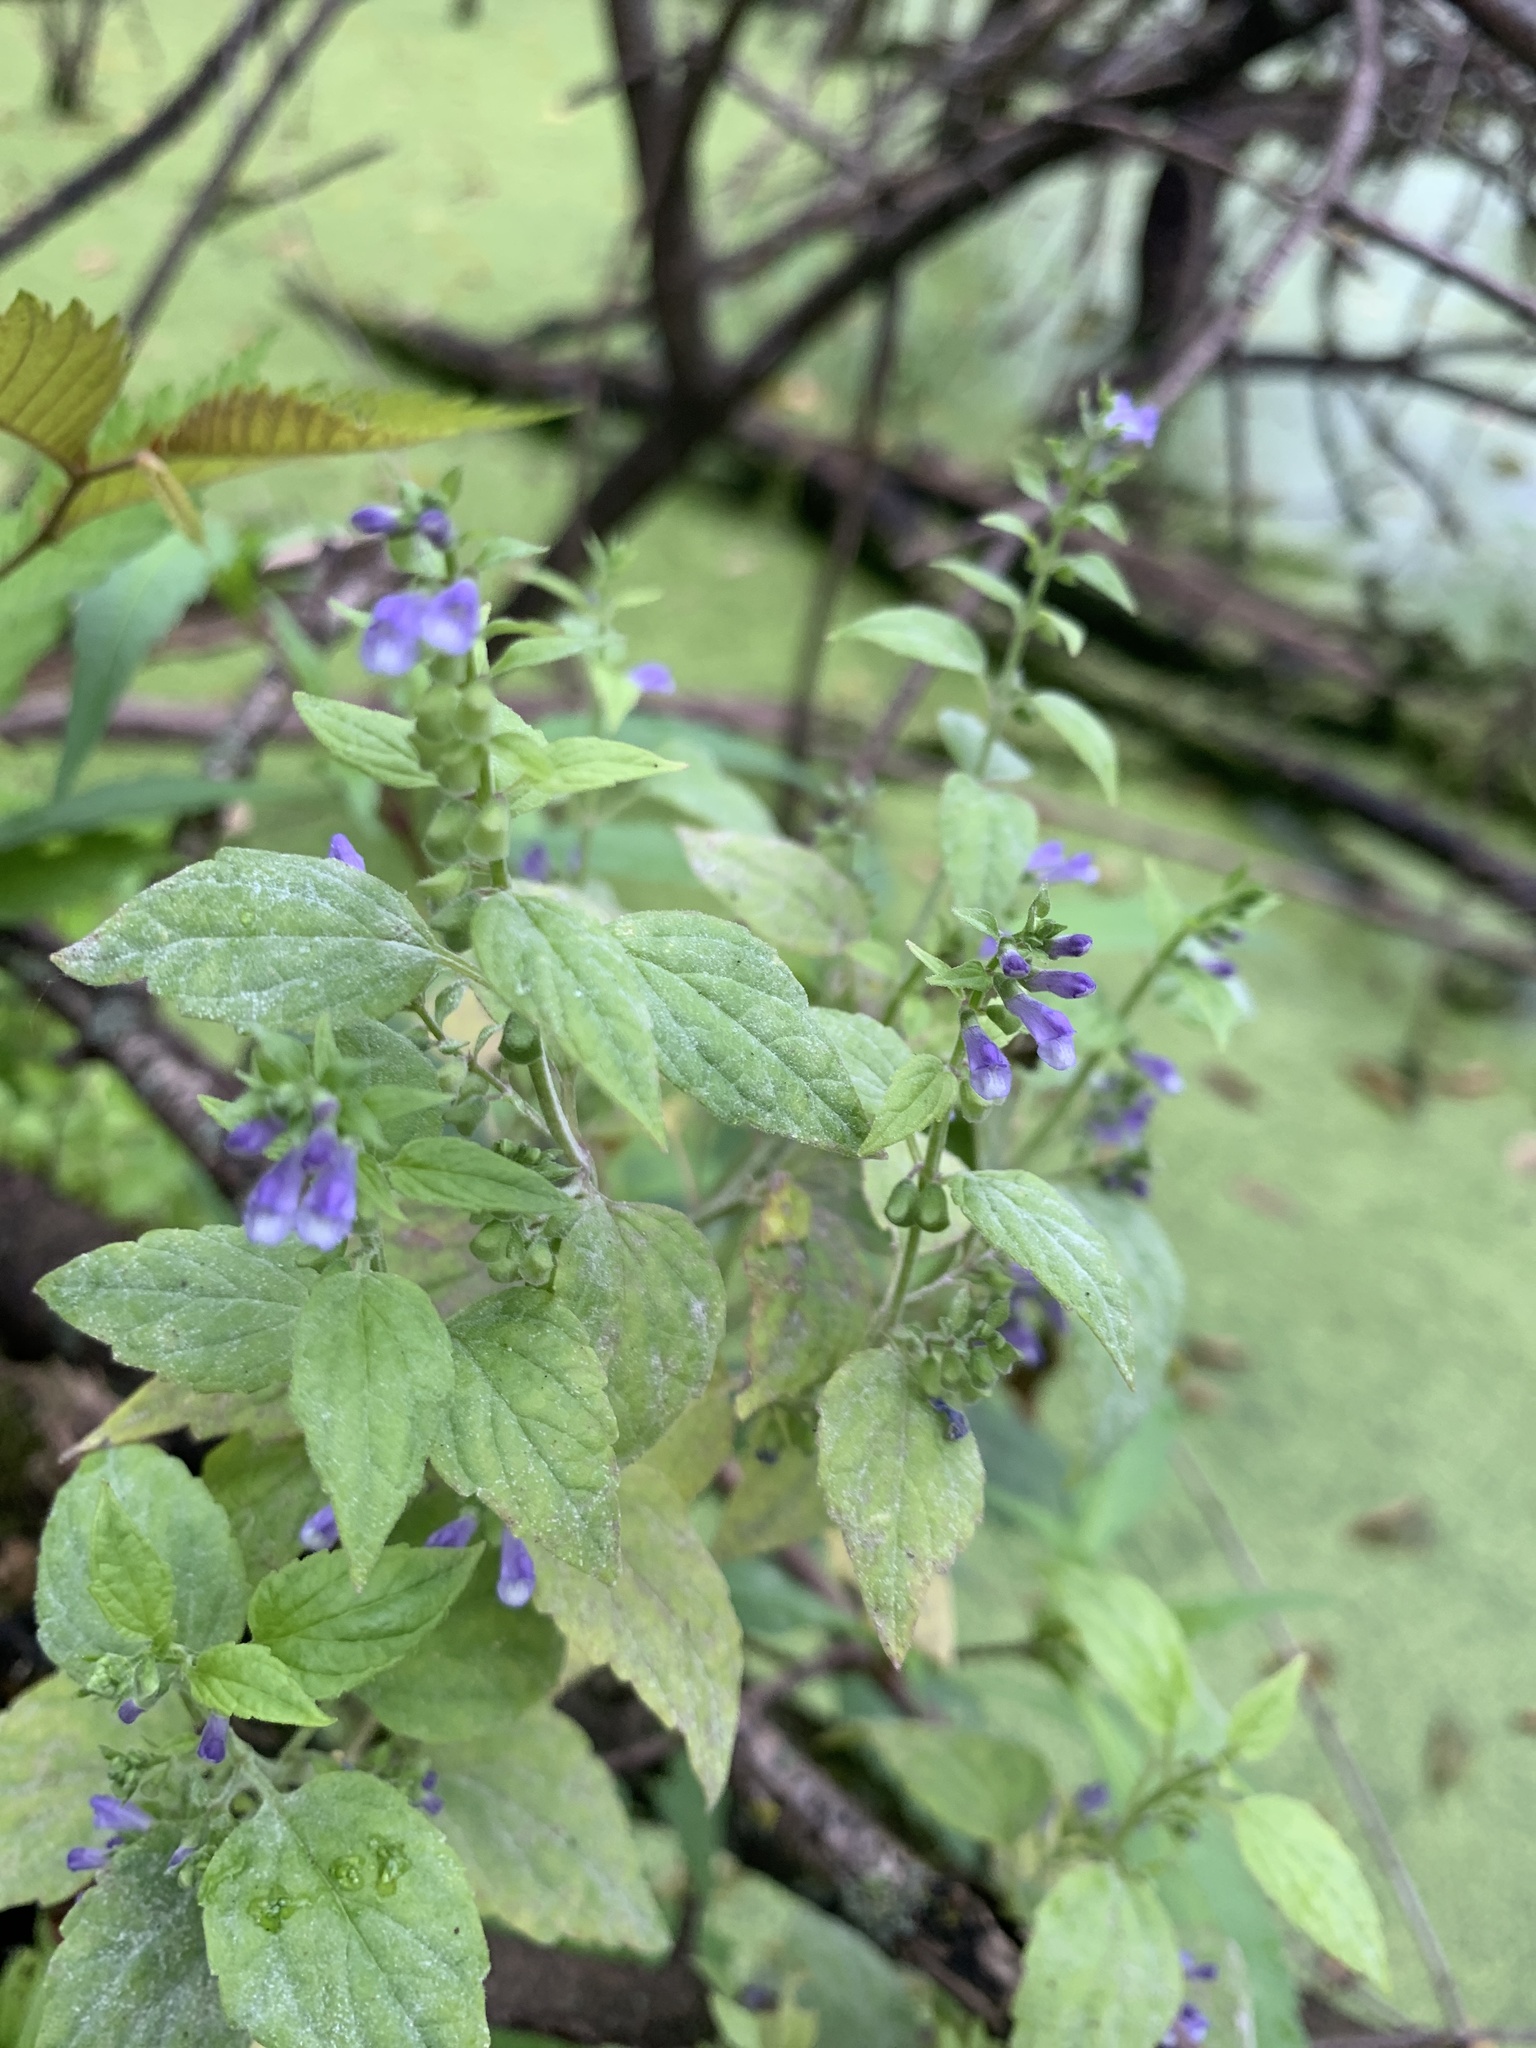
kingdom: Plantae
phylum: Tracheophyta
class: Magnoliopsida
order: Lamiales
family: Lamiaceae
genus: Scutellaria
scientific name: Scutellaria lateriflora
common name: Blue skullcap
